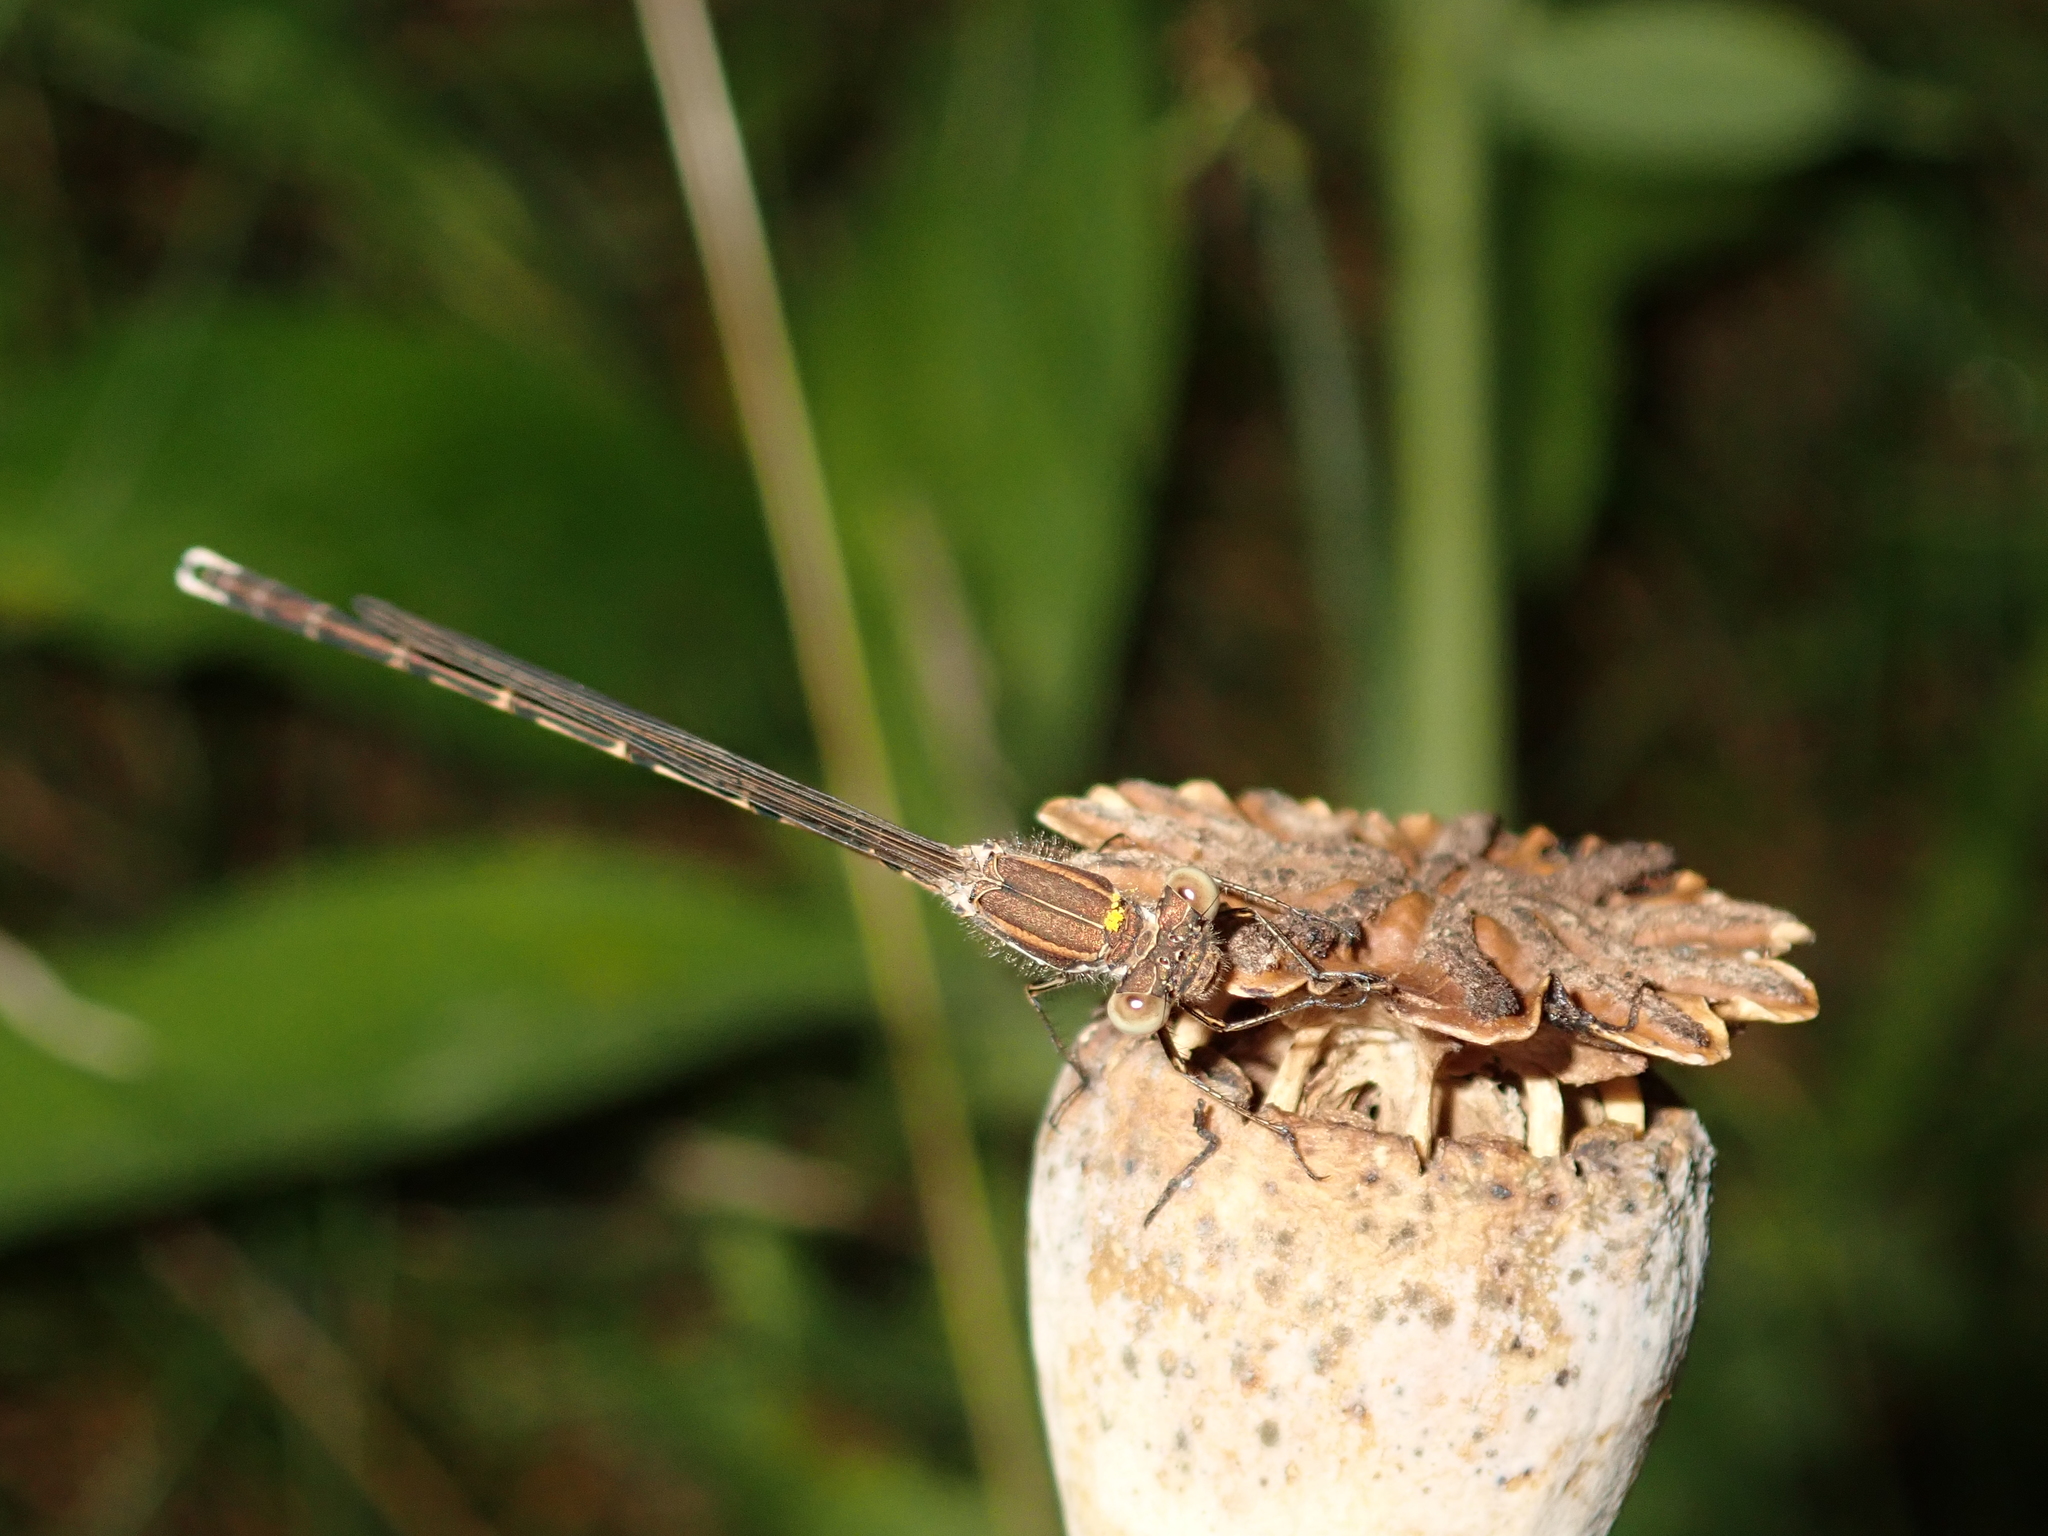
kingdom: Animalia
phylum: Arthropoda
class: Insecta
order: Odonata
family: Lestidae
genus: Sympecma
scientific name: Sympecma fusca
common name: Common winter damsel
